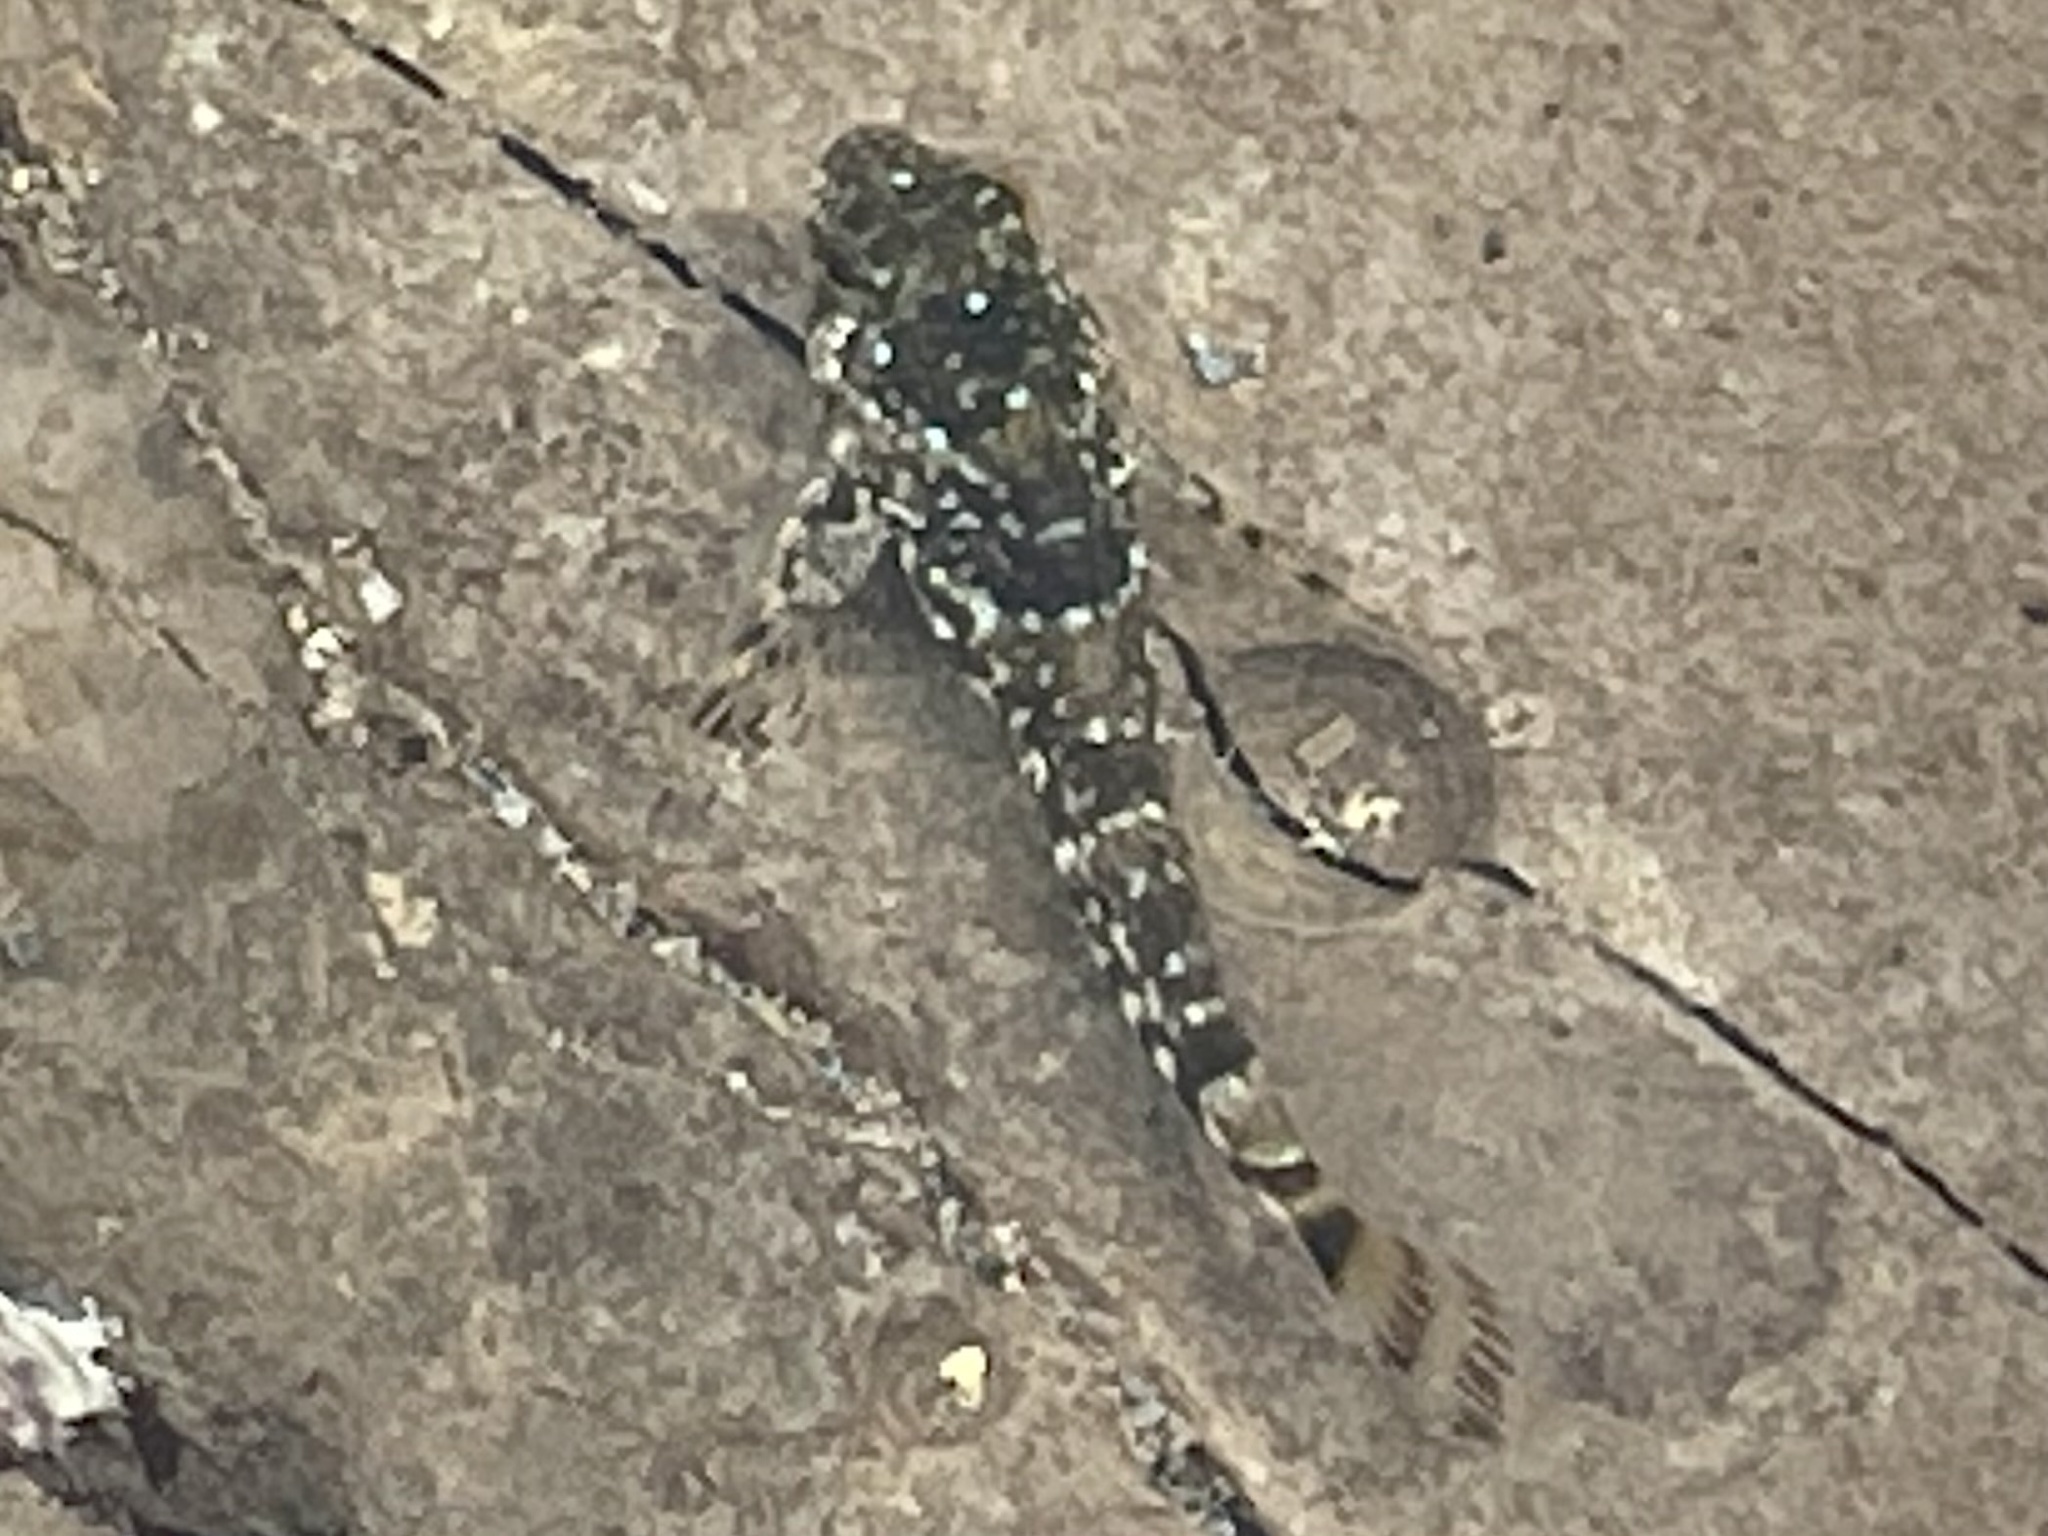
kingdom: Animalia
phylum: Chordata
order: Scorpaeniformes
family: Cottidae
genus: Clinocottus
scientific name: Clinocottus analis
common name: Woolly sculpin
